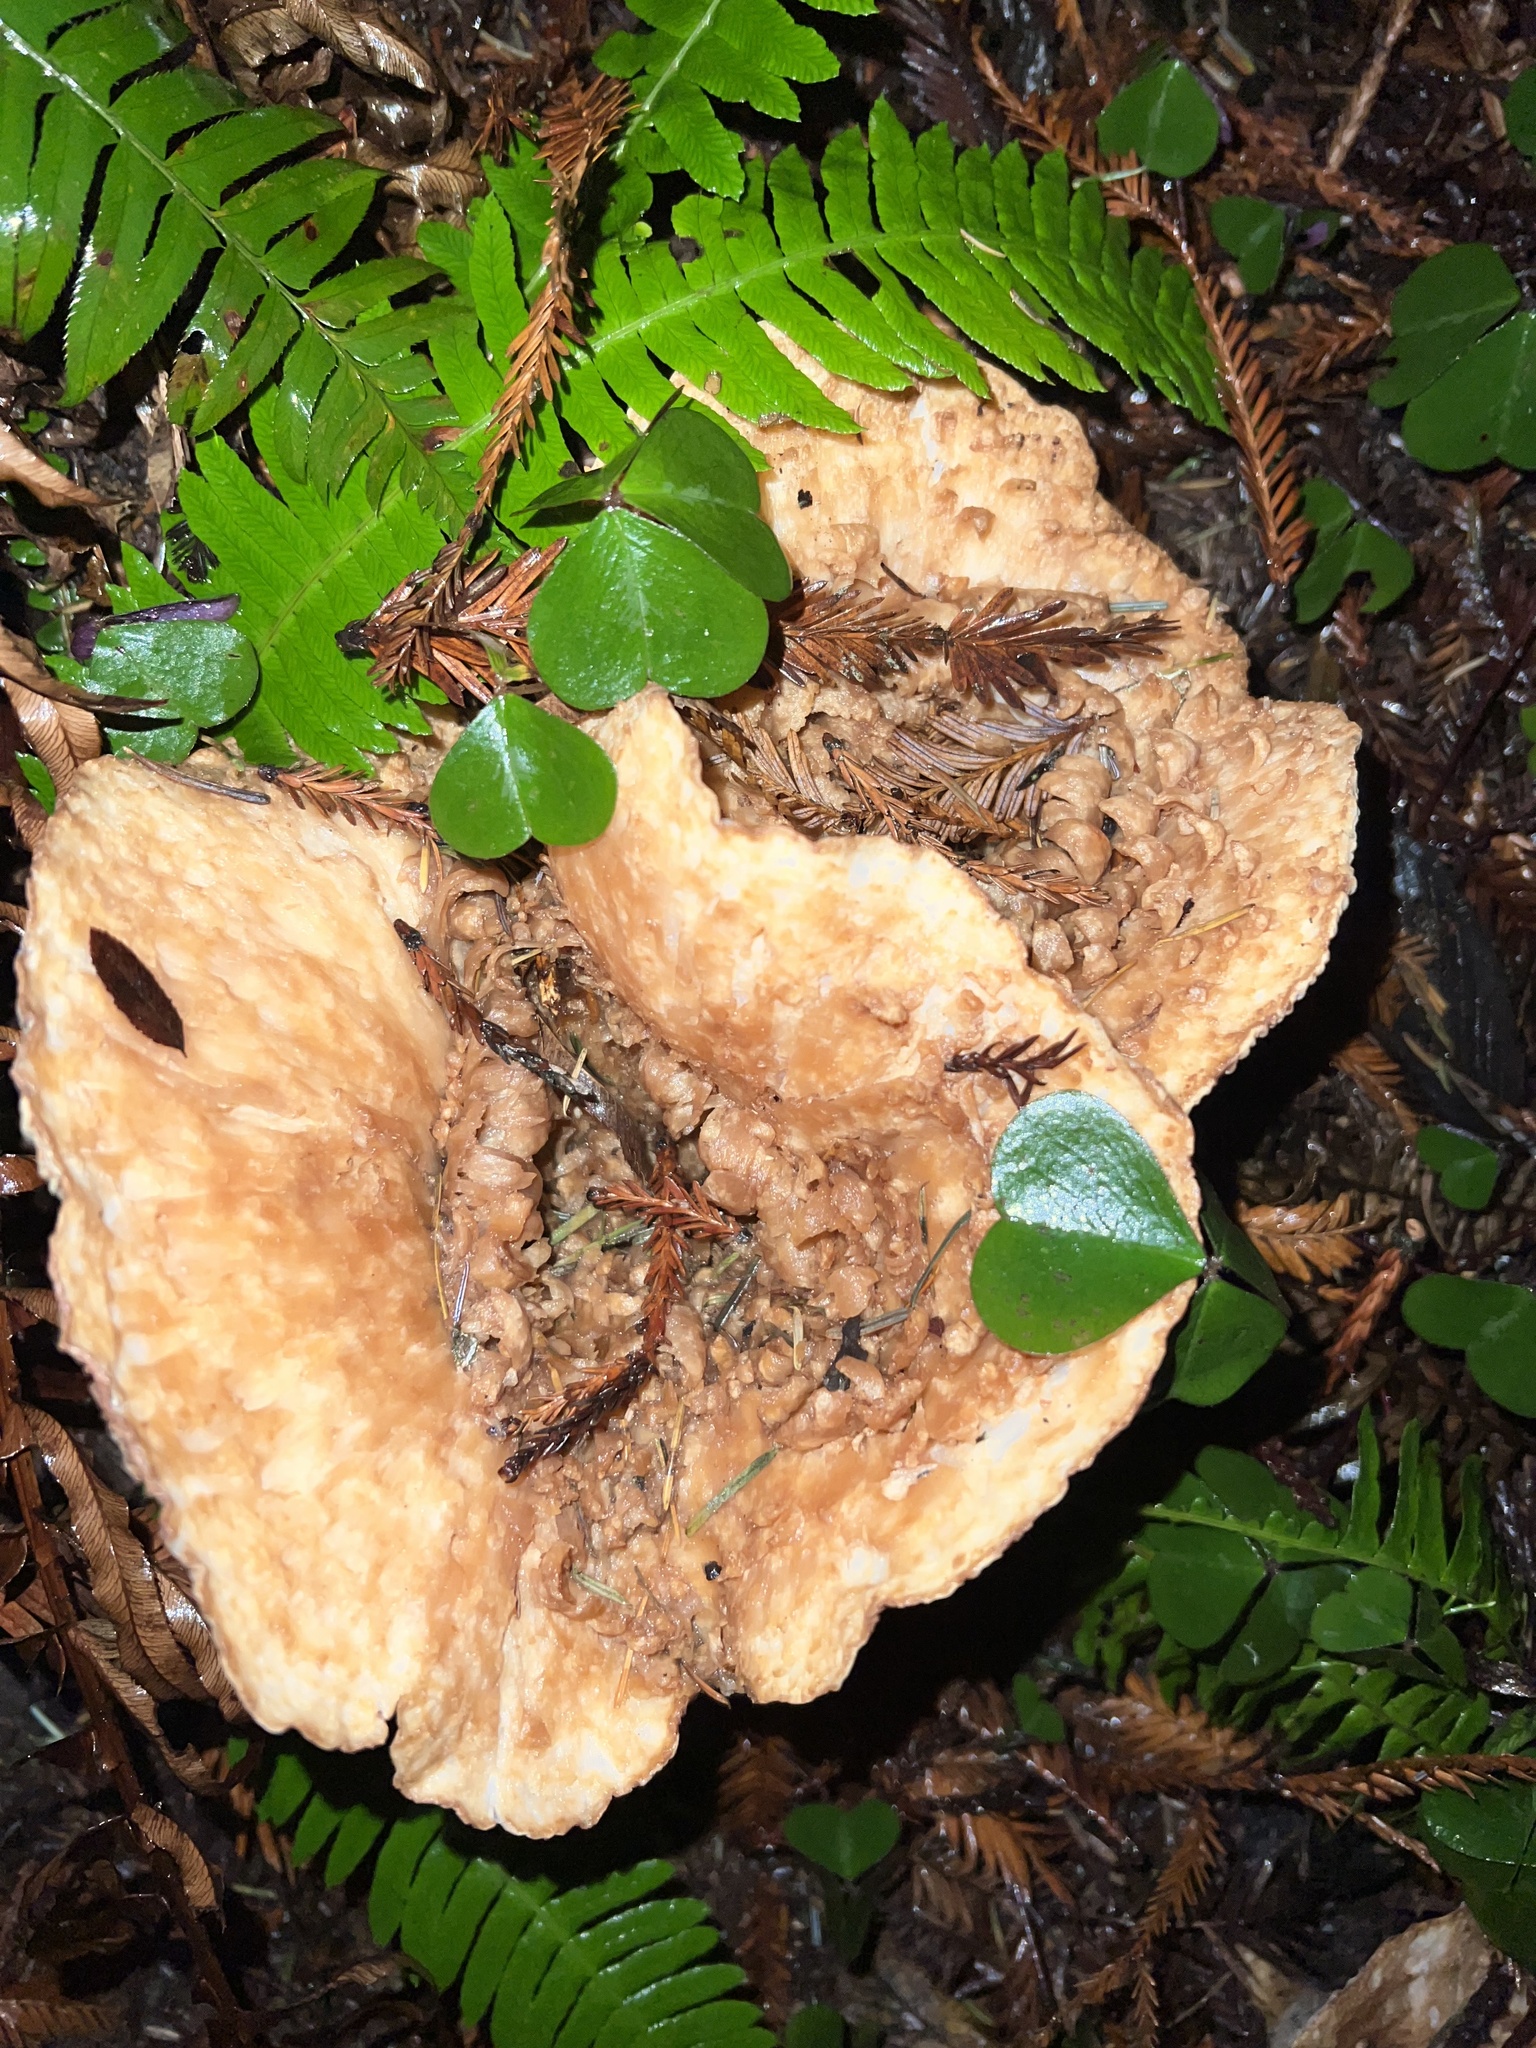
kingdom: Fungi
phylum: Basidiomycota
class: Agaricomycetes
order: Gomphales
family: Gomphaceae
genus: Turbinellus
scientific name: Turbinellus kauffmanii
